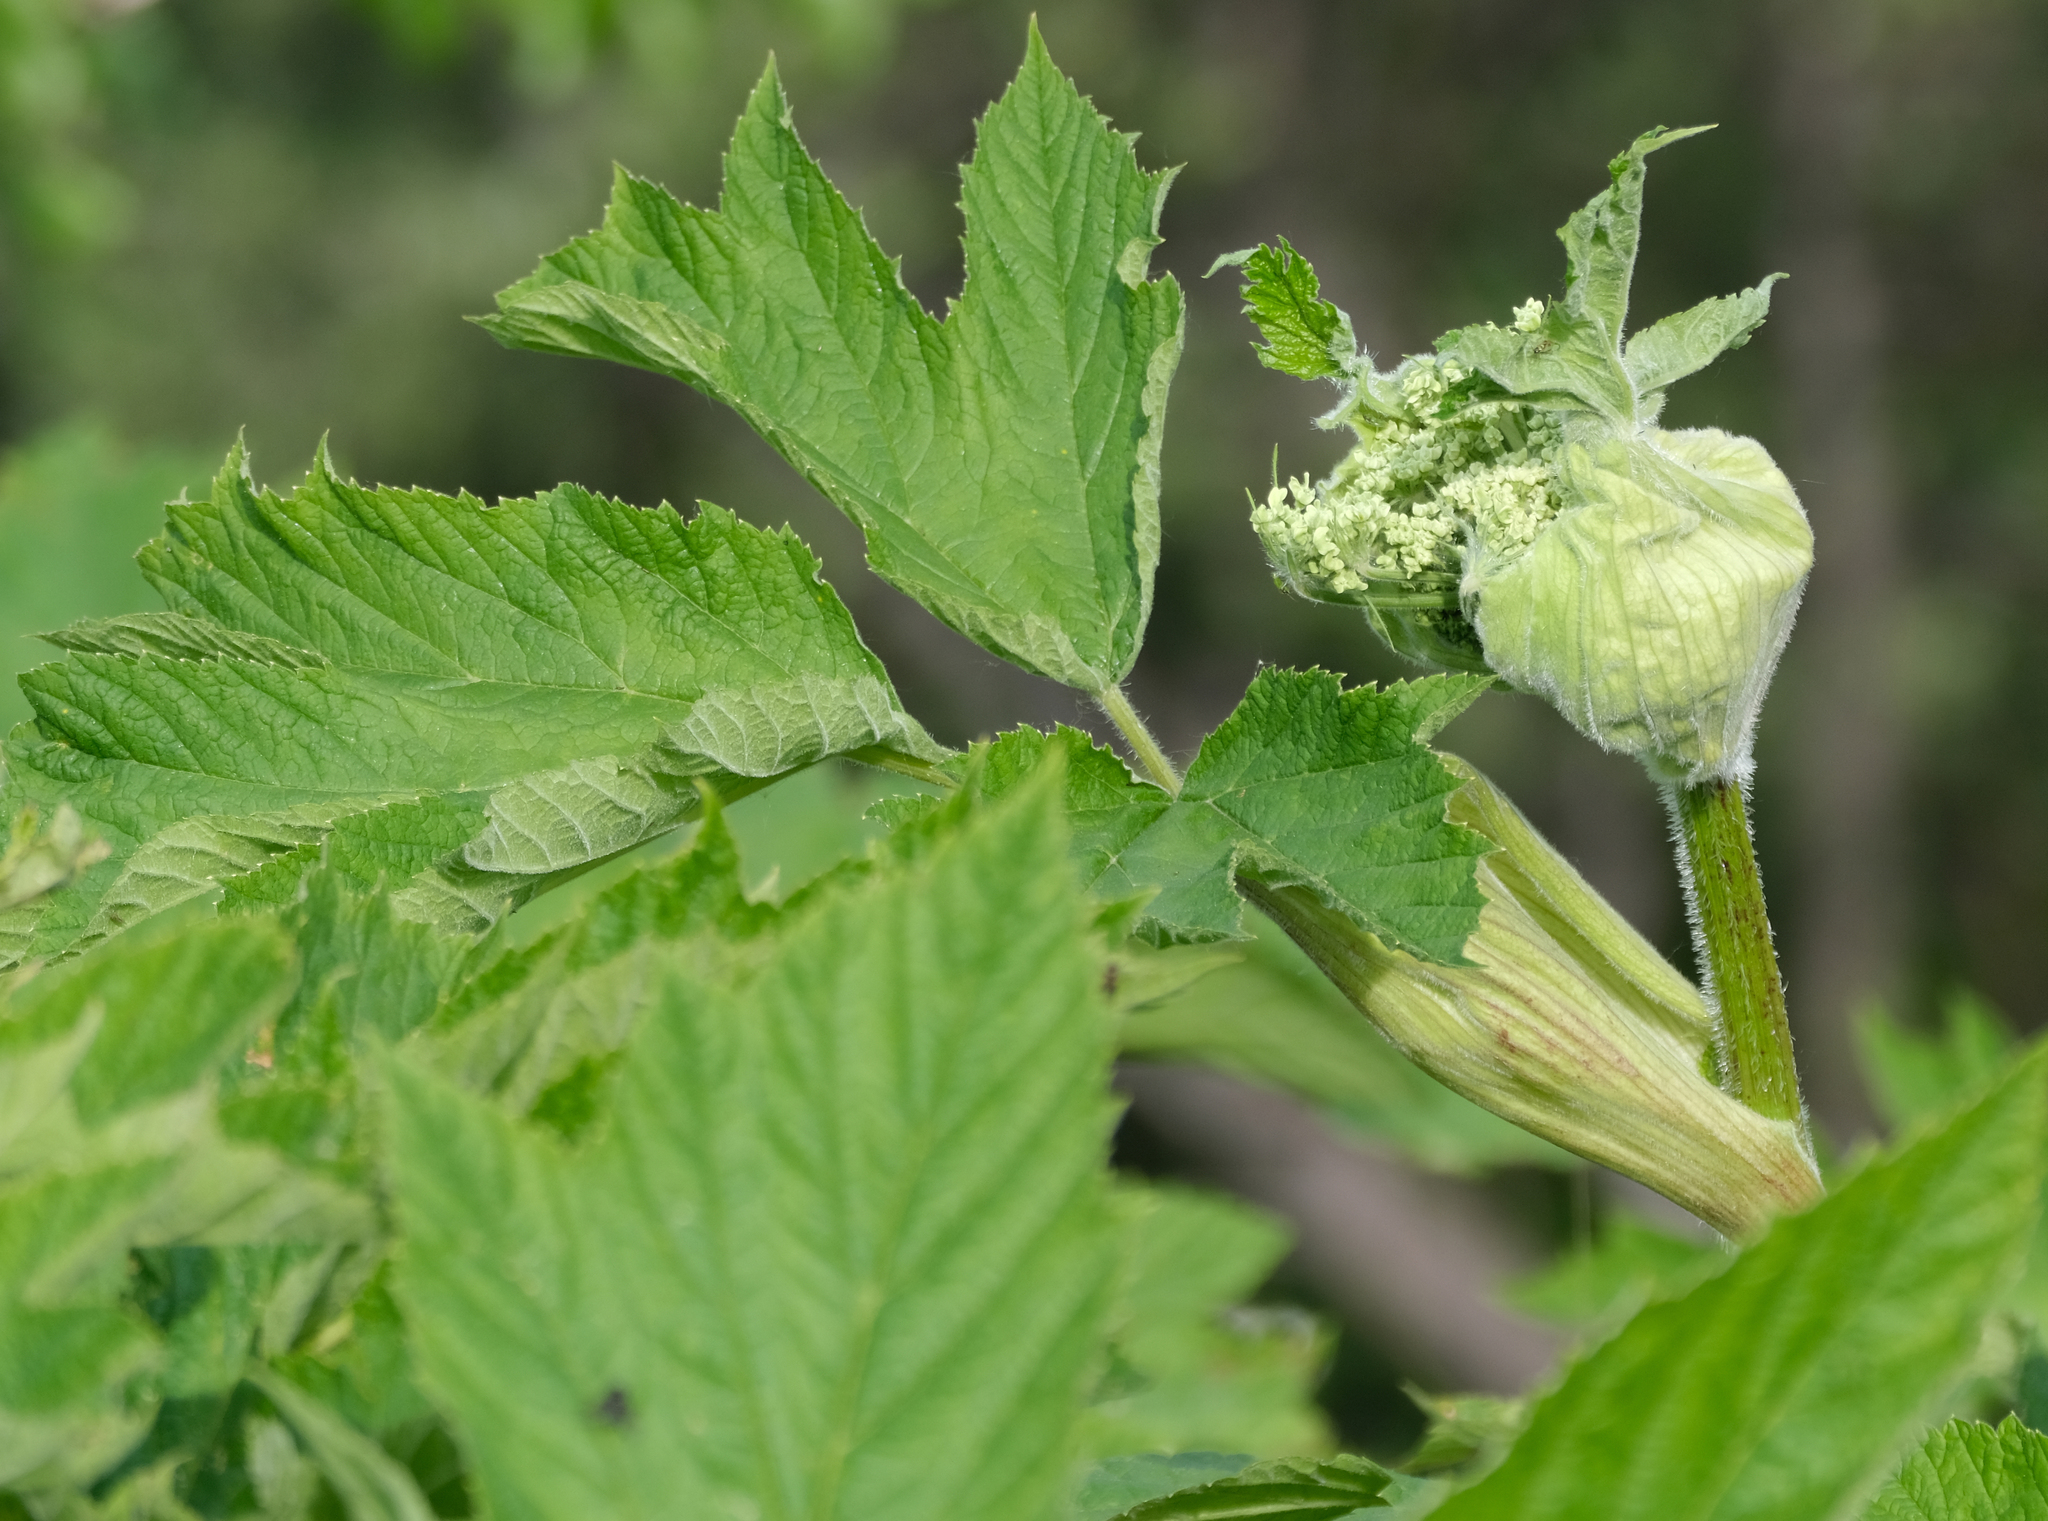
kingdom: Plantae
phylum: Tracheophyta
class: Magnoliopsida
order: Apiales
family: Apiaceae
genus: Heracleum
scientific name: Heracleum maximum
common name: American cow parsnip
